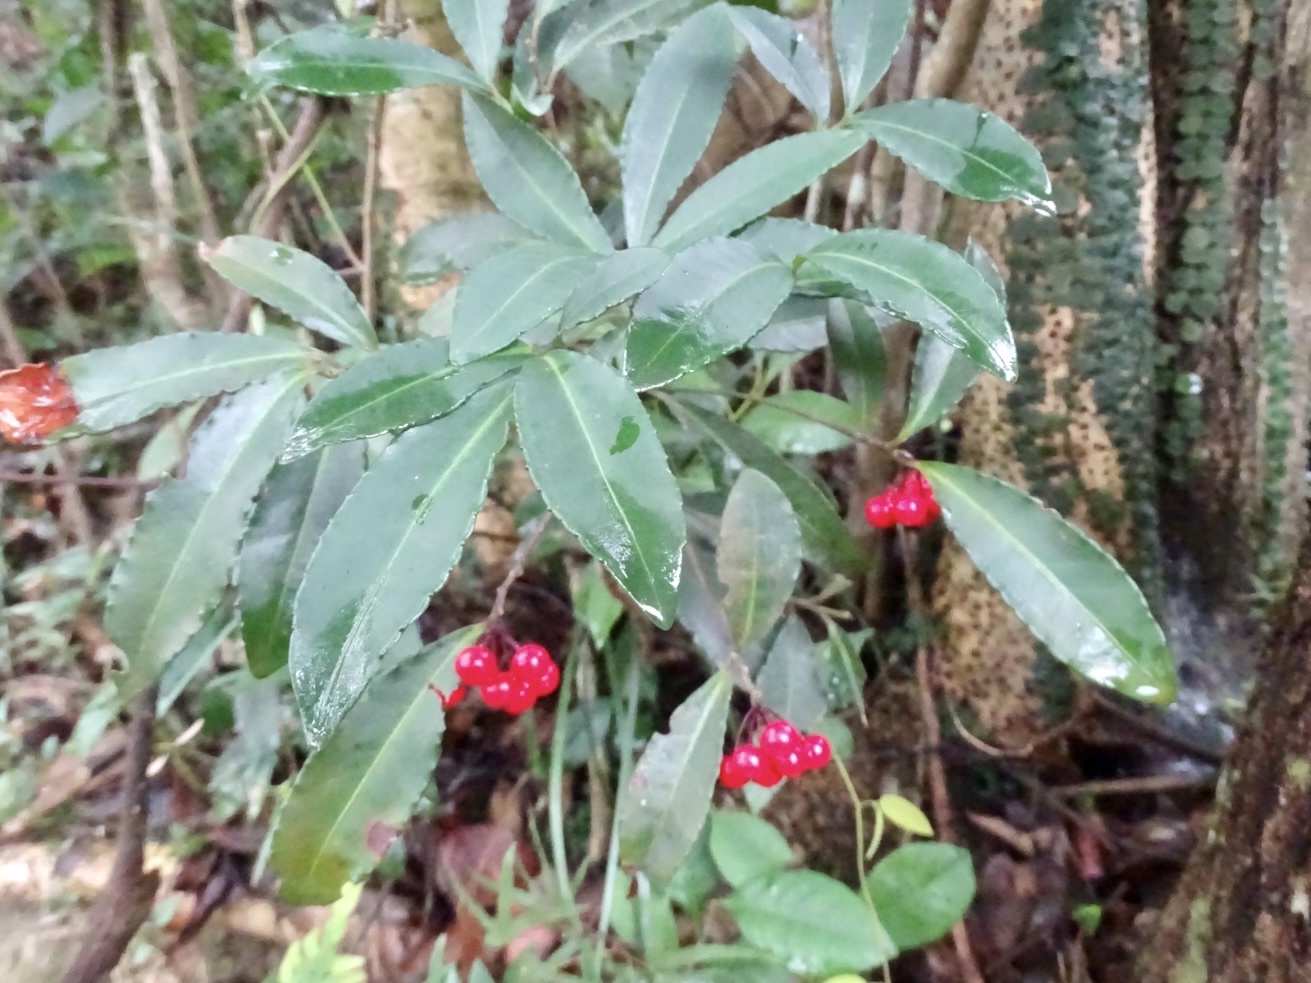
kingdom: Plantae
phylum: Tracheophyta
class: Magnoliopsida
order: Ericales
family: Primulaceae
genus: Ardisia
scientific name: Ardisia crenata
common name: Hen's eyes
